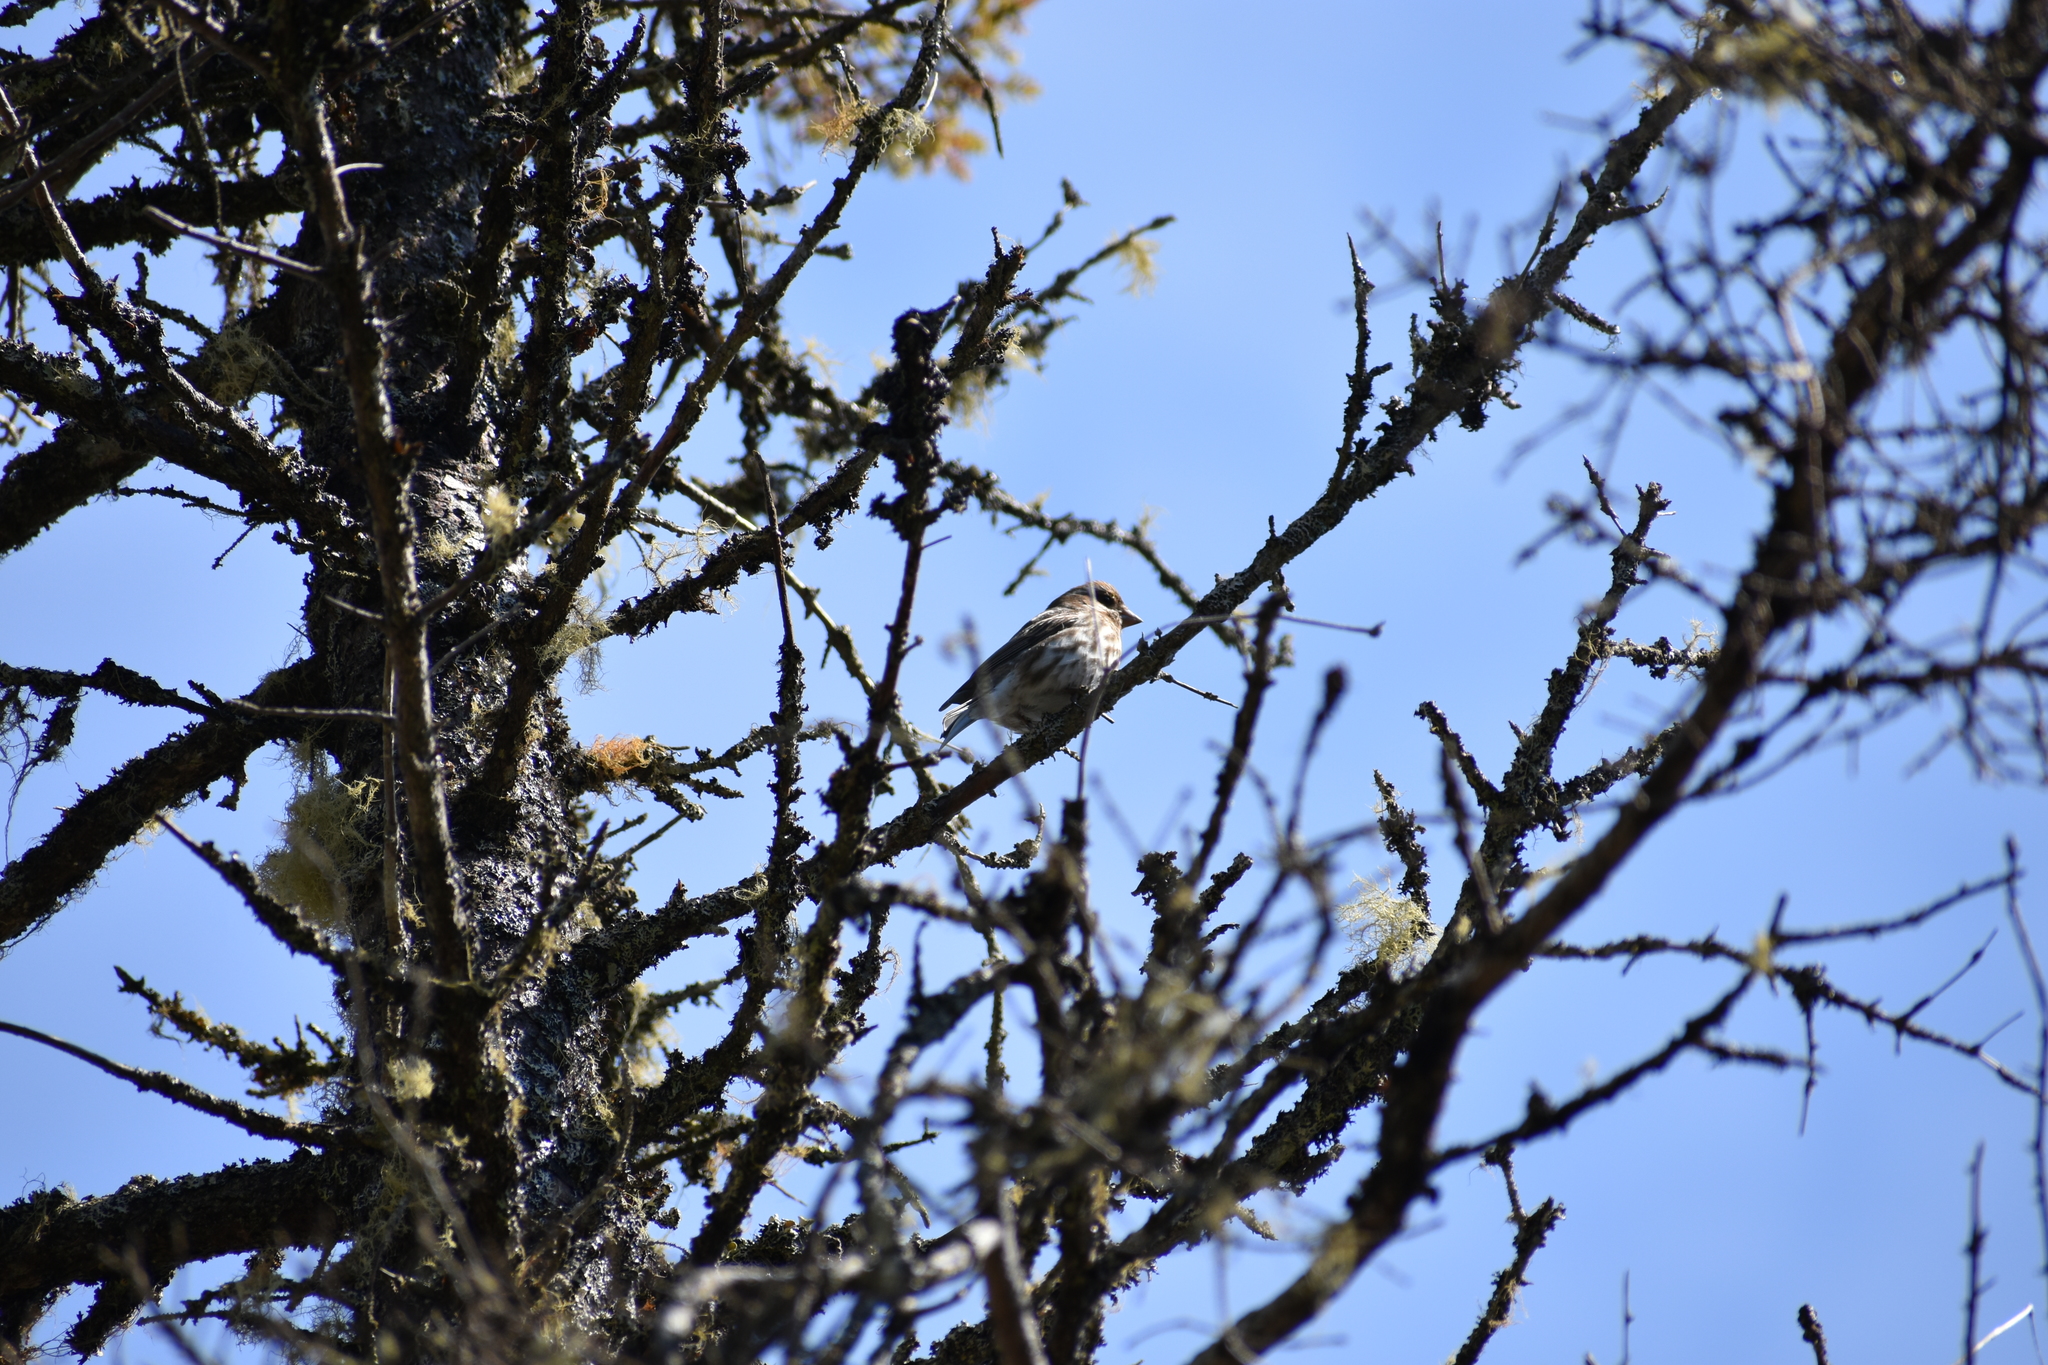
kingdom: Animalia
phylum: Chordata
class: Aves
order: Passeriformes
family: Fringillidae
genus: Haemorhous
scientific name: Haemorhous purpureus
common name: Purple finch
